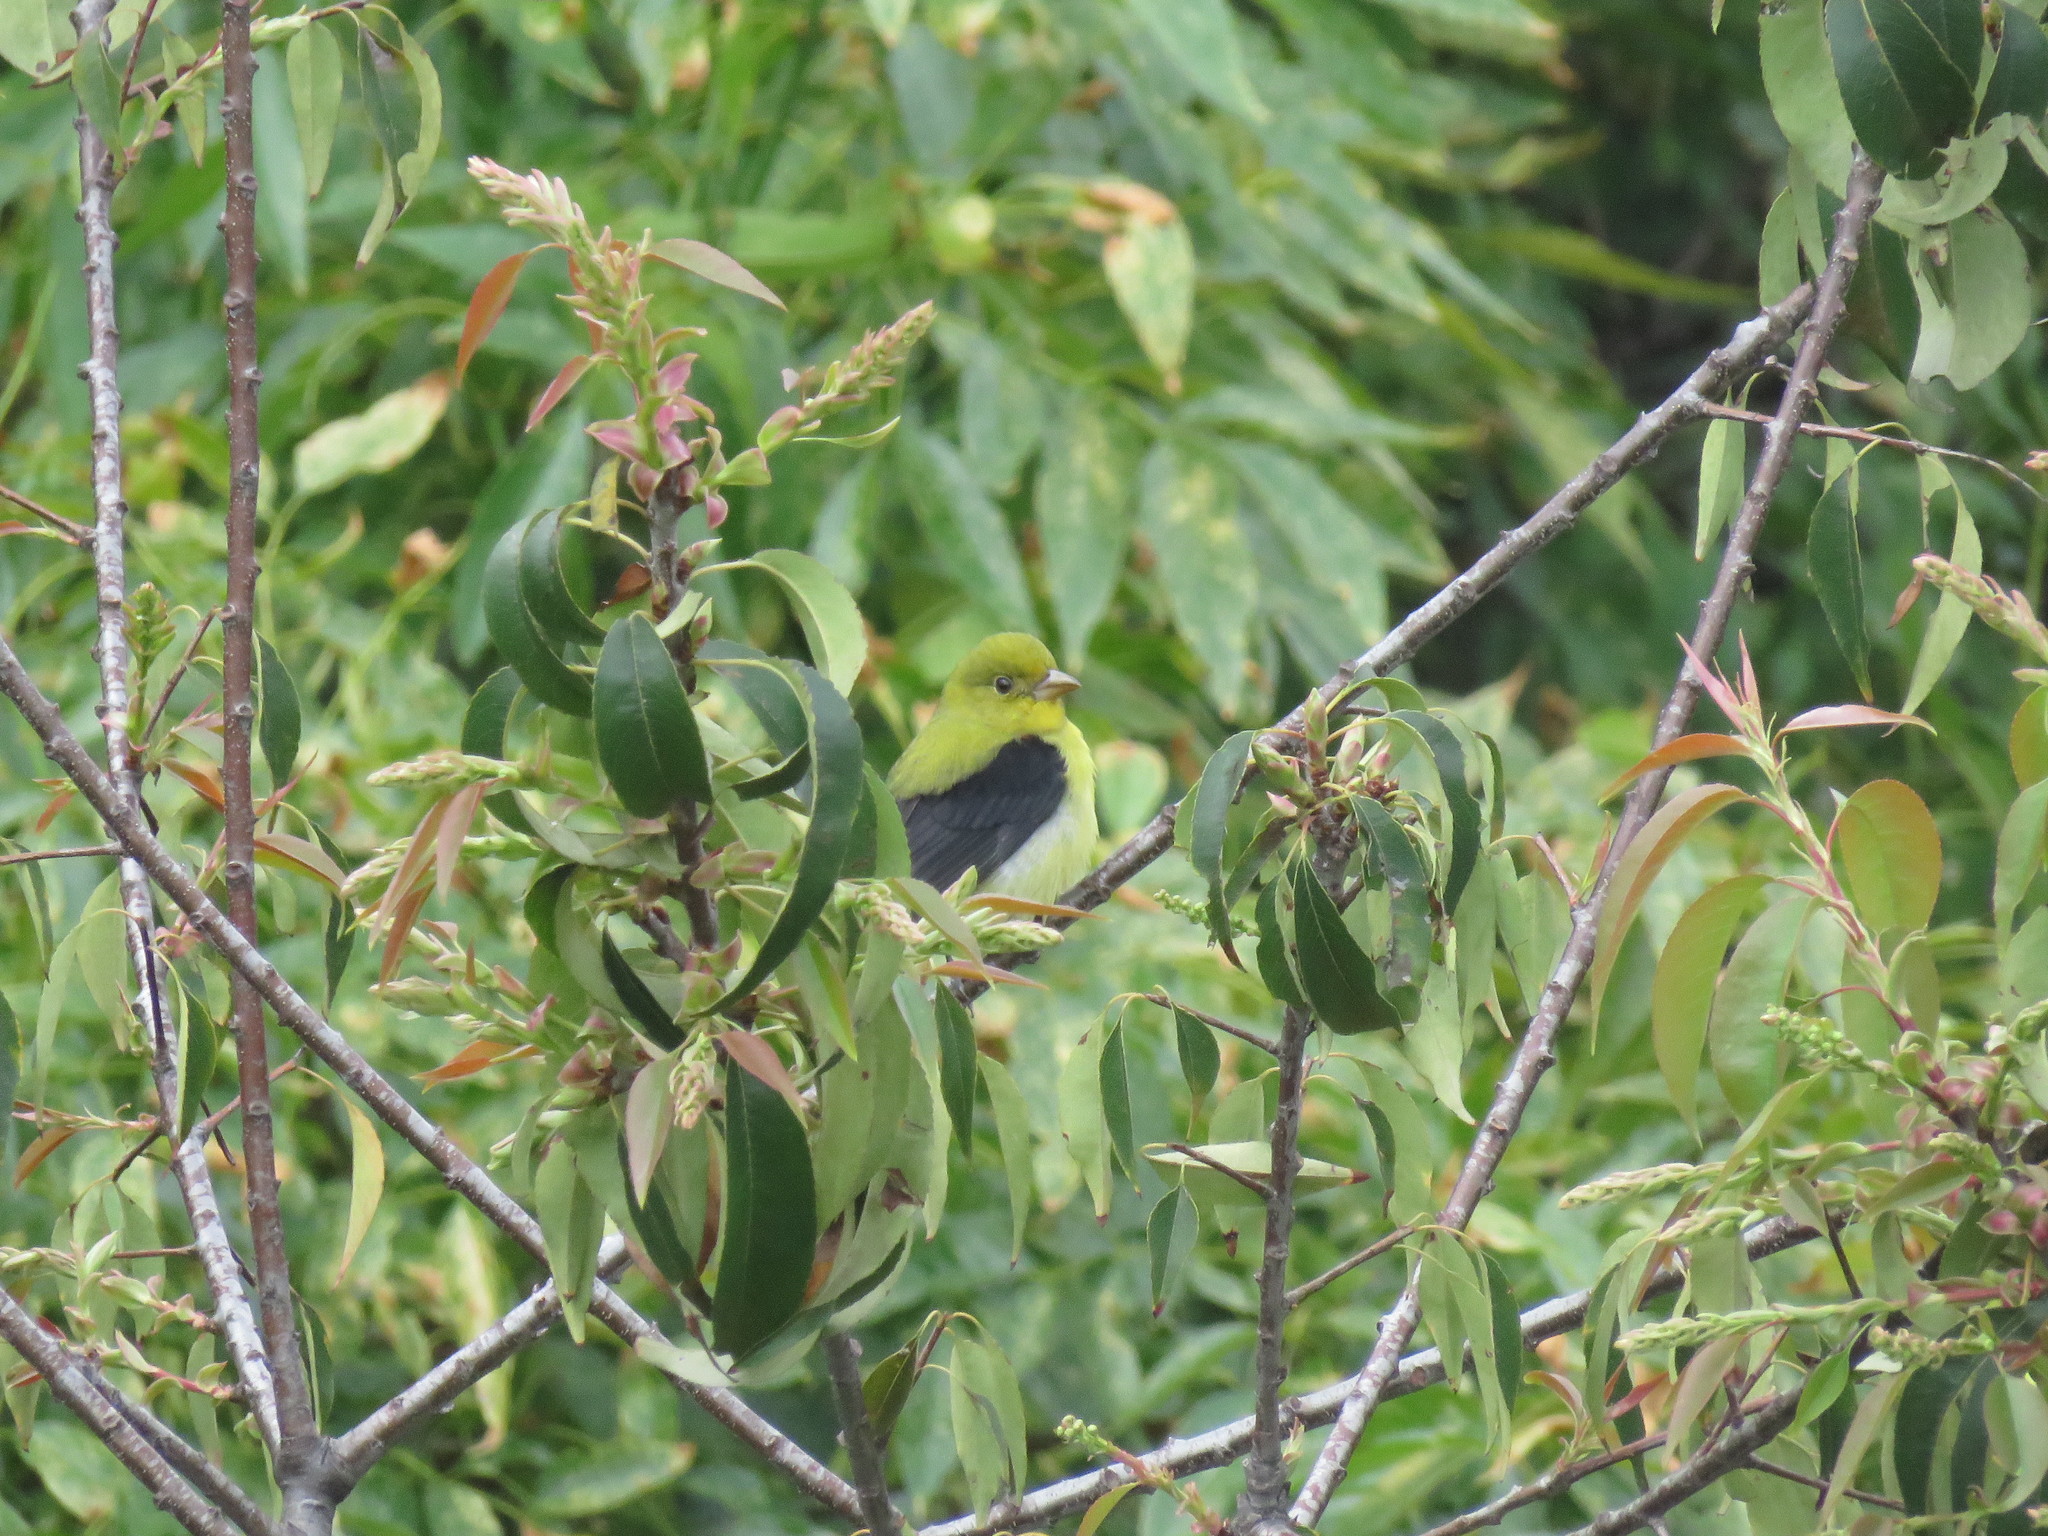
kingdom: Animalia
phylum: Chordata
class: Aves
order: Passeriformes
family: Cardinalidae
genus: Piranga
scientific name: Piranga olivacea
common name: Scarlet tanager
